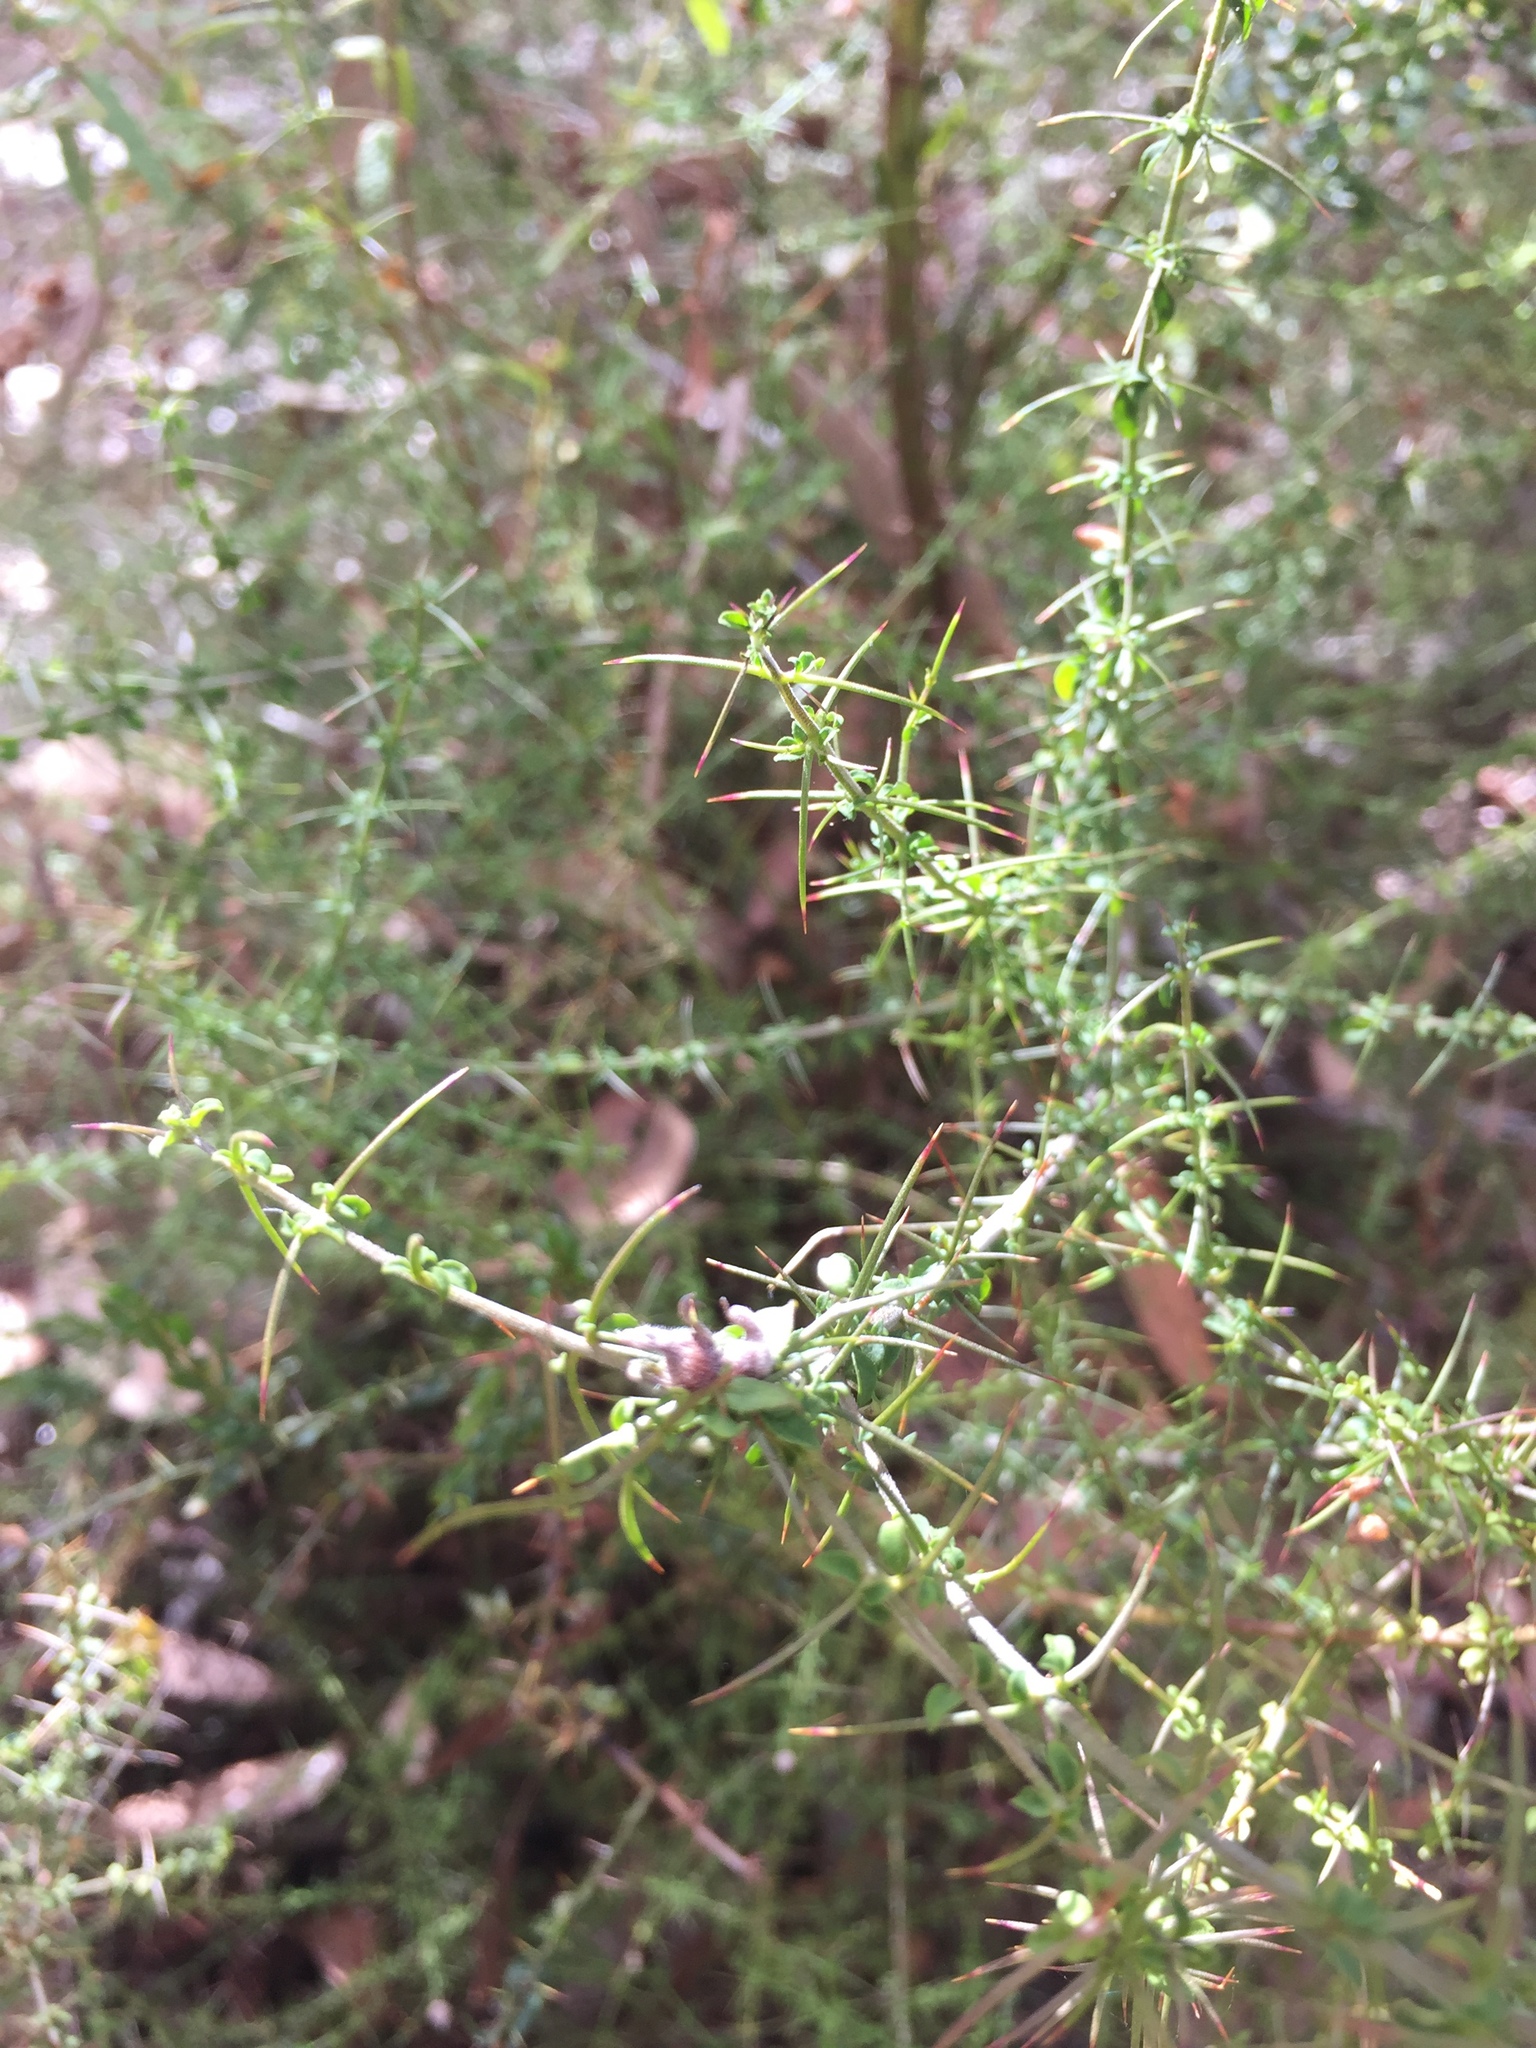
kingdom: Plantae
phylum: Tracheophyta
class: Magnoliopsida
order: Lamiales
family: Lamiaceae
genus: Prostanthera
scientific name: Prostanthera spinosa
